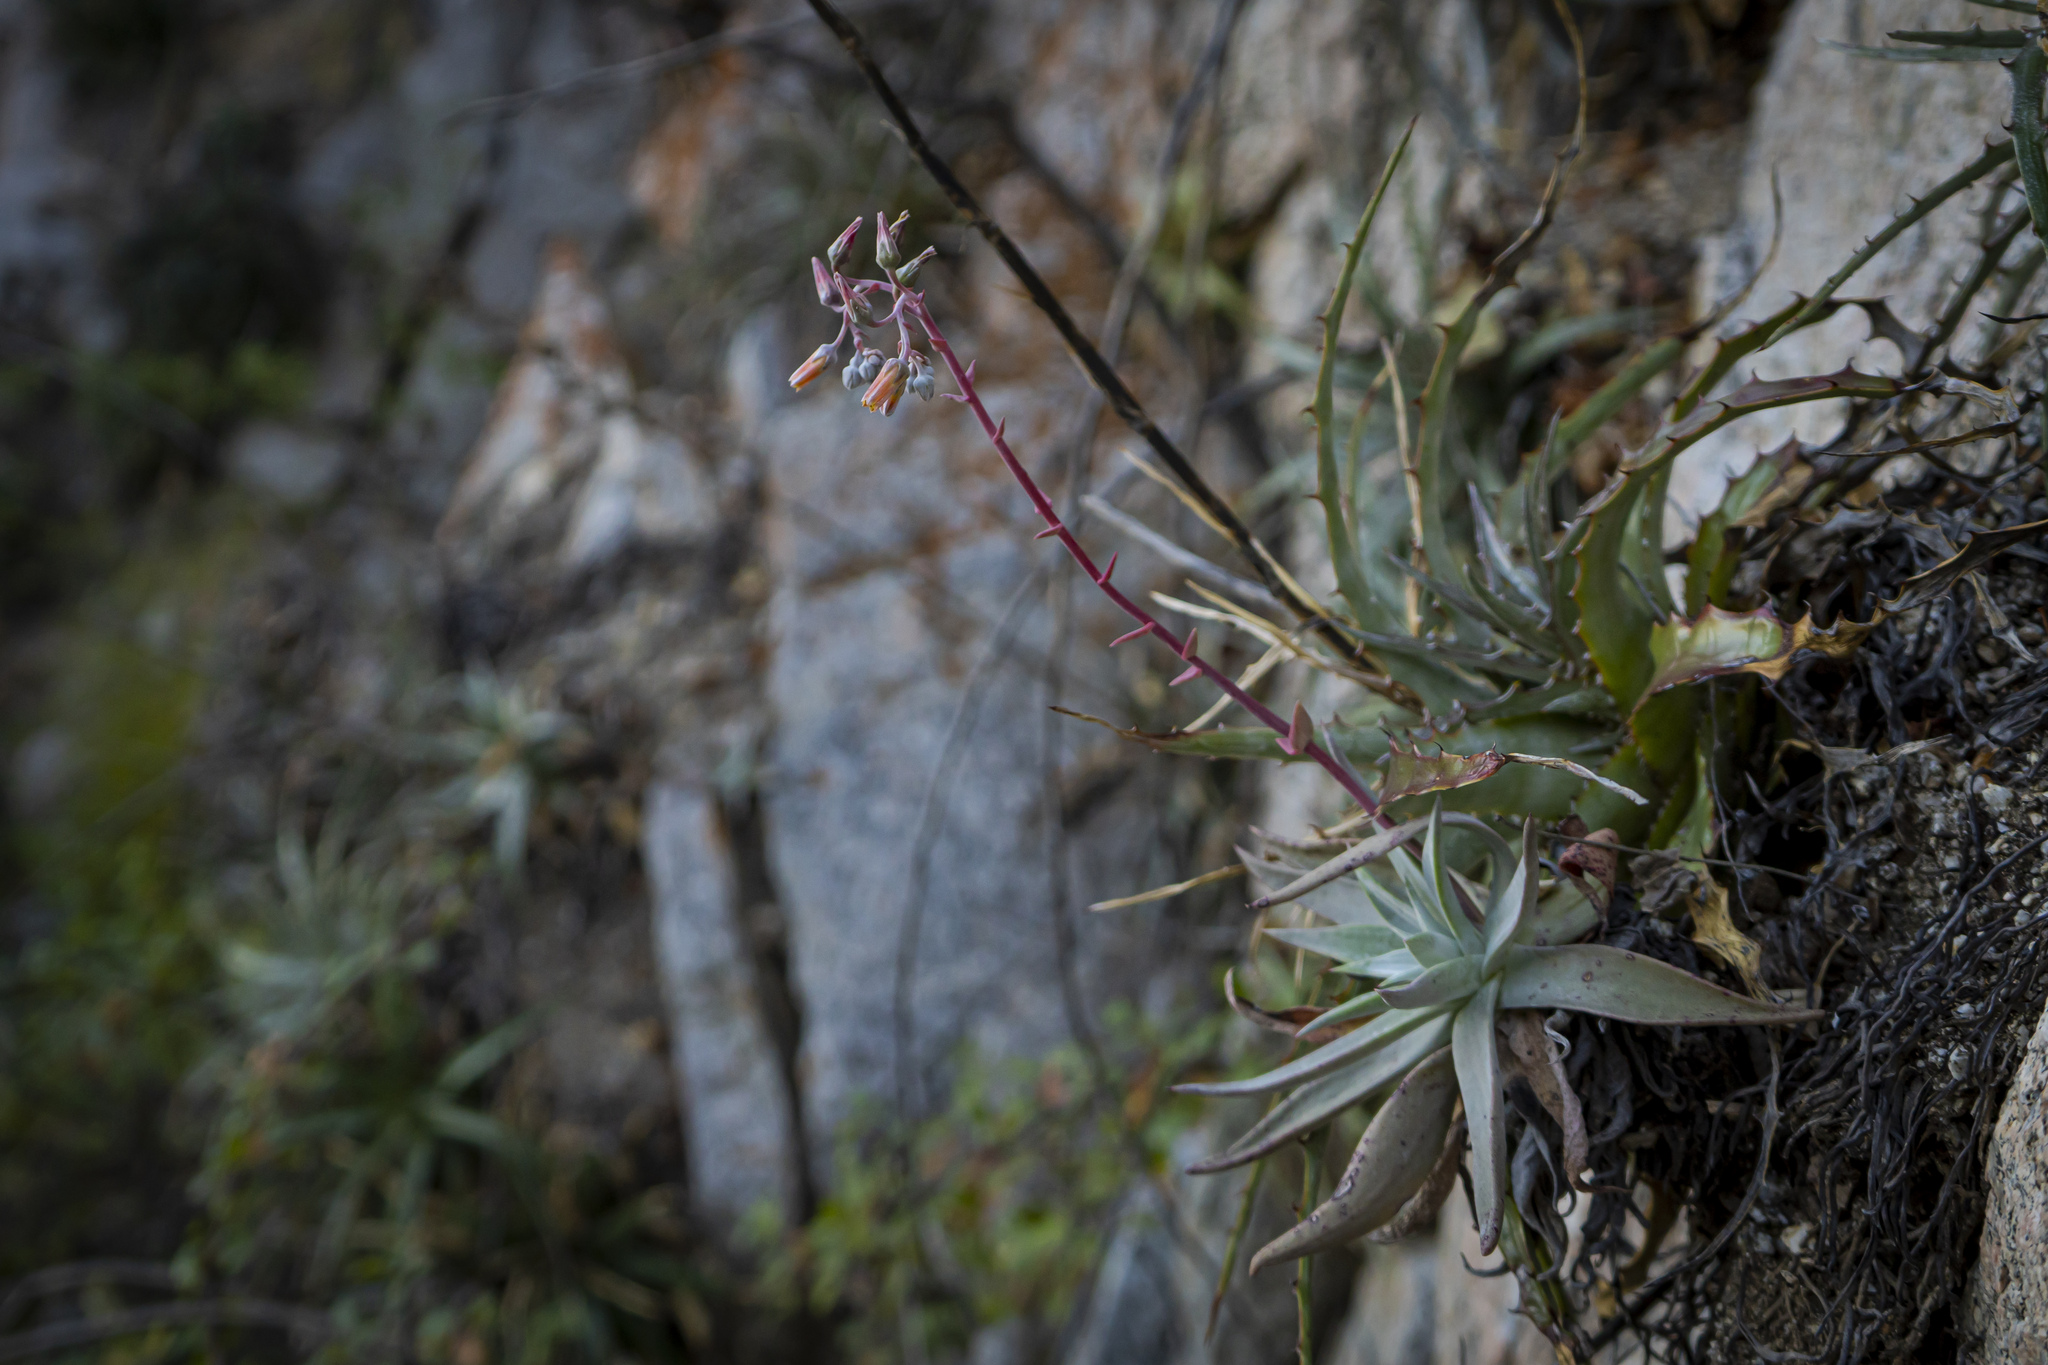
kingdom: Plantae
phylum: Tracheophyta
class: Magnoliopsida
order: Saxifragales
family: Crassulaceae
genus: Dudleya
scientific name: Dudleya nubigena
